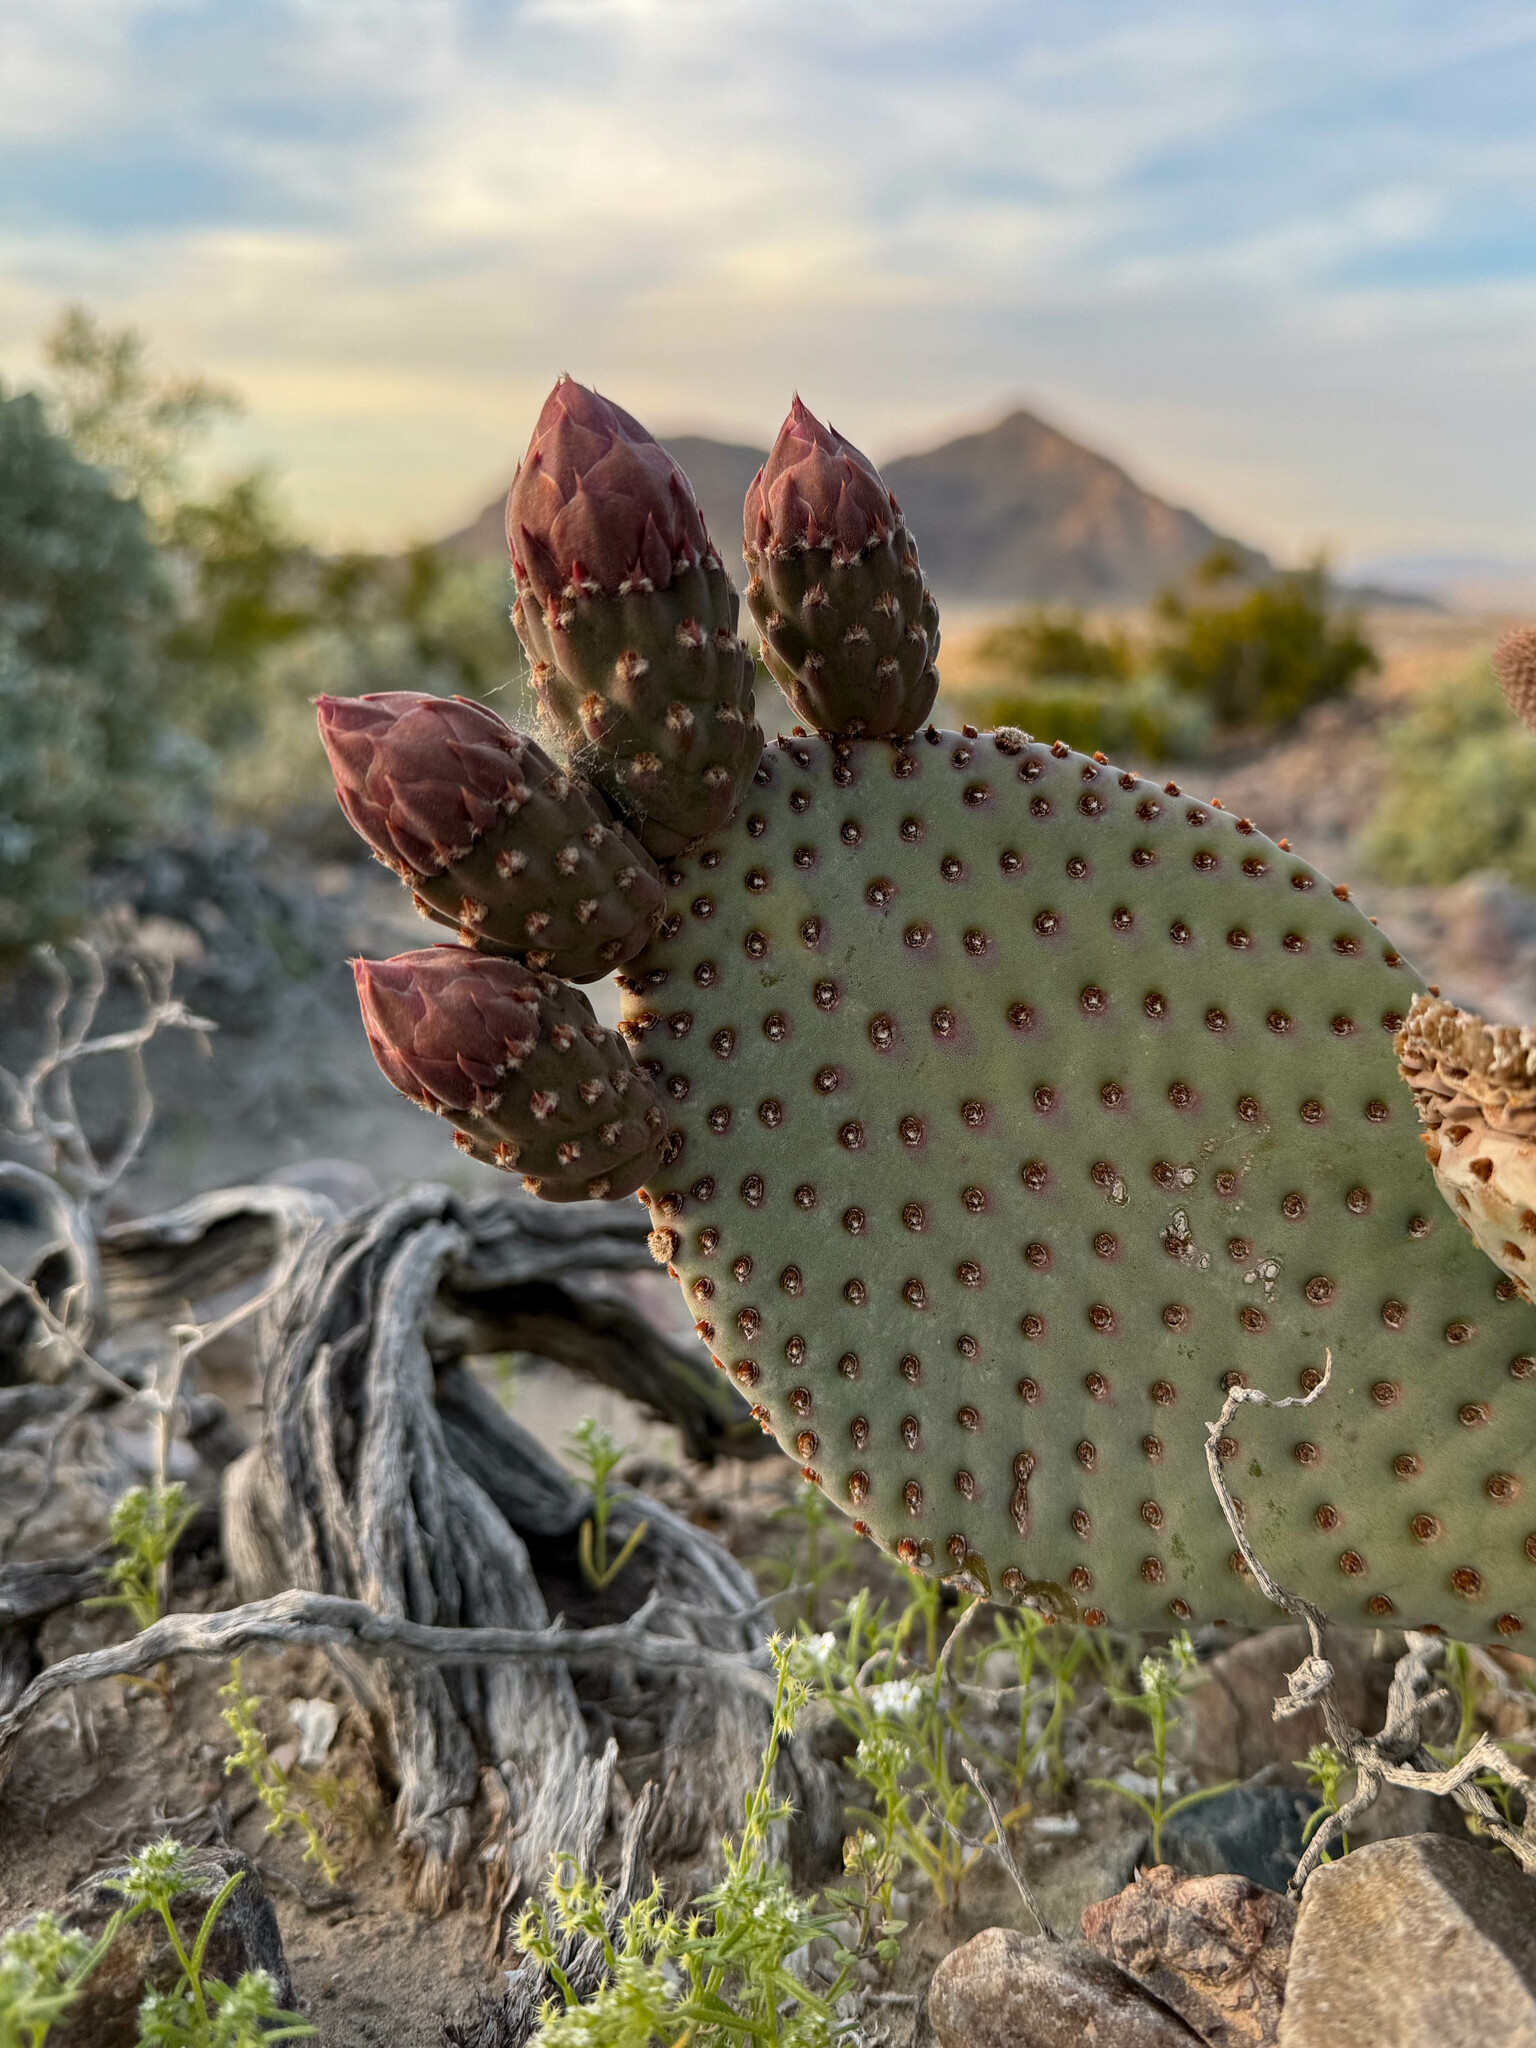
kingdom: Plantae
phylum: Tracheophyta
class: Magnoliopsida
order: Caryophyllales
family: Cactaceae
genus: Opuntia
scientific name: Opuntia basilaris
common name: Beavertail prickly-pear
